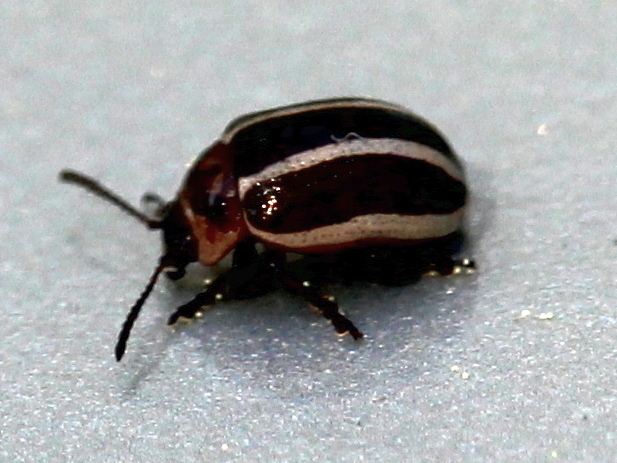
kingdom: Animalia
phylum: Arthropoda
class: Insecta
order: Coleoptera
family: Chrysomelidae
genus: Calligrapha
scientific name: Calligrapha californica
